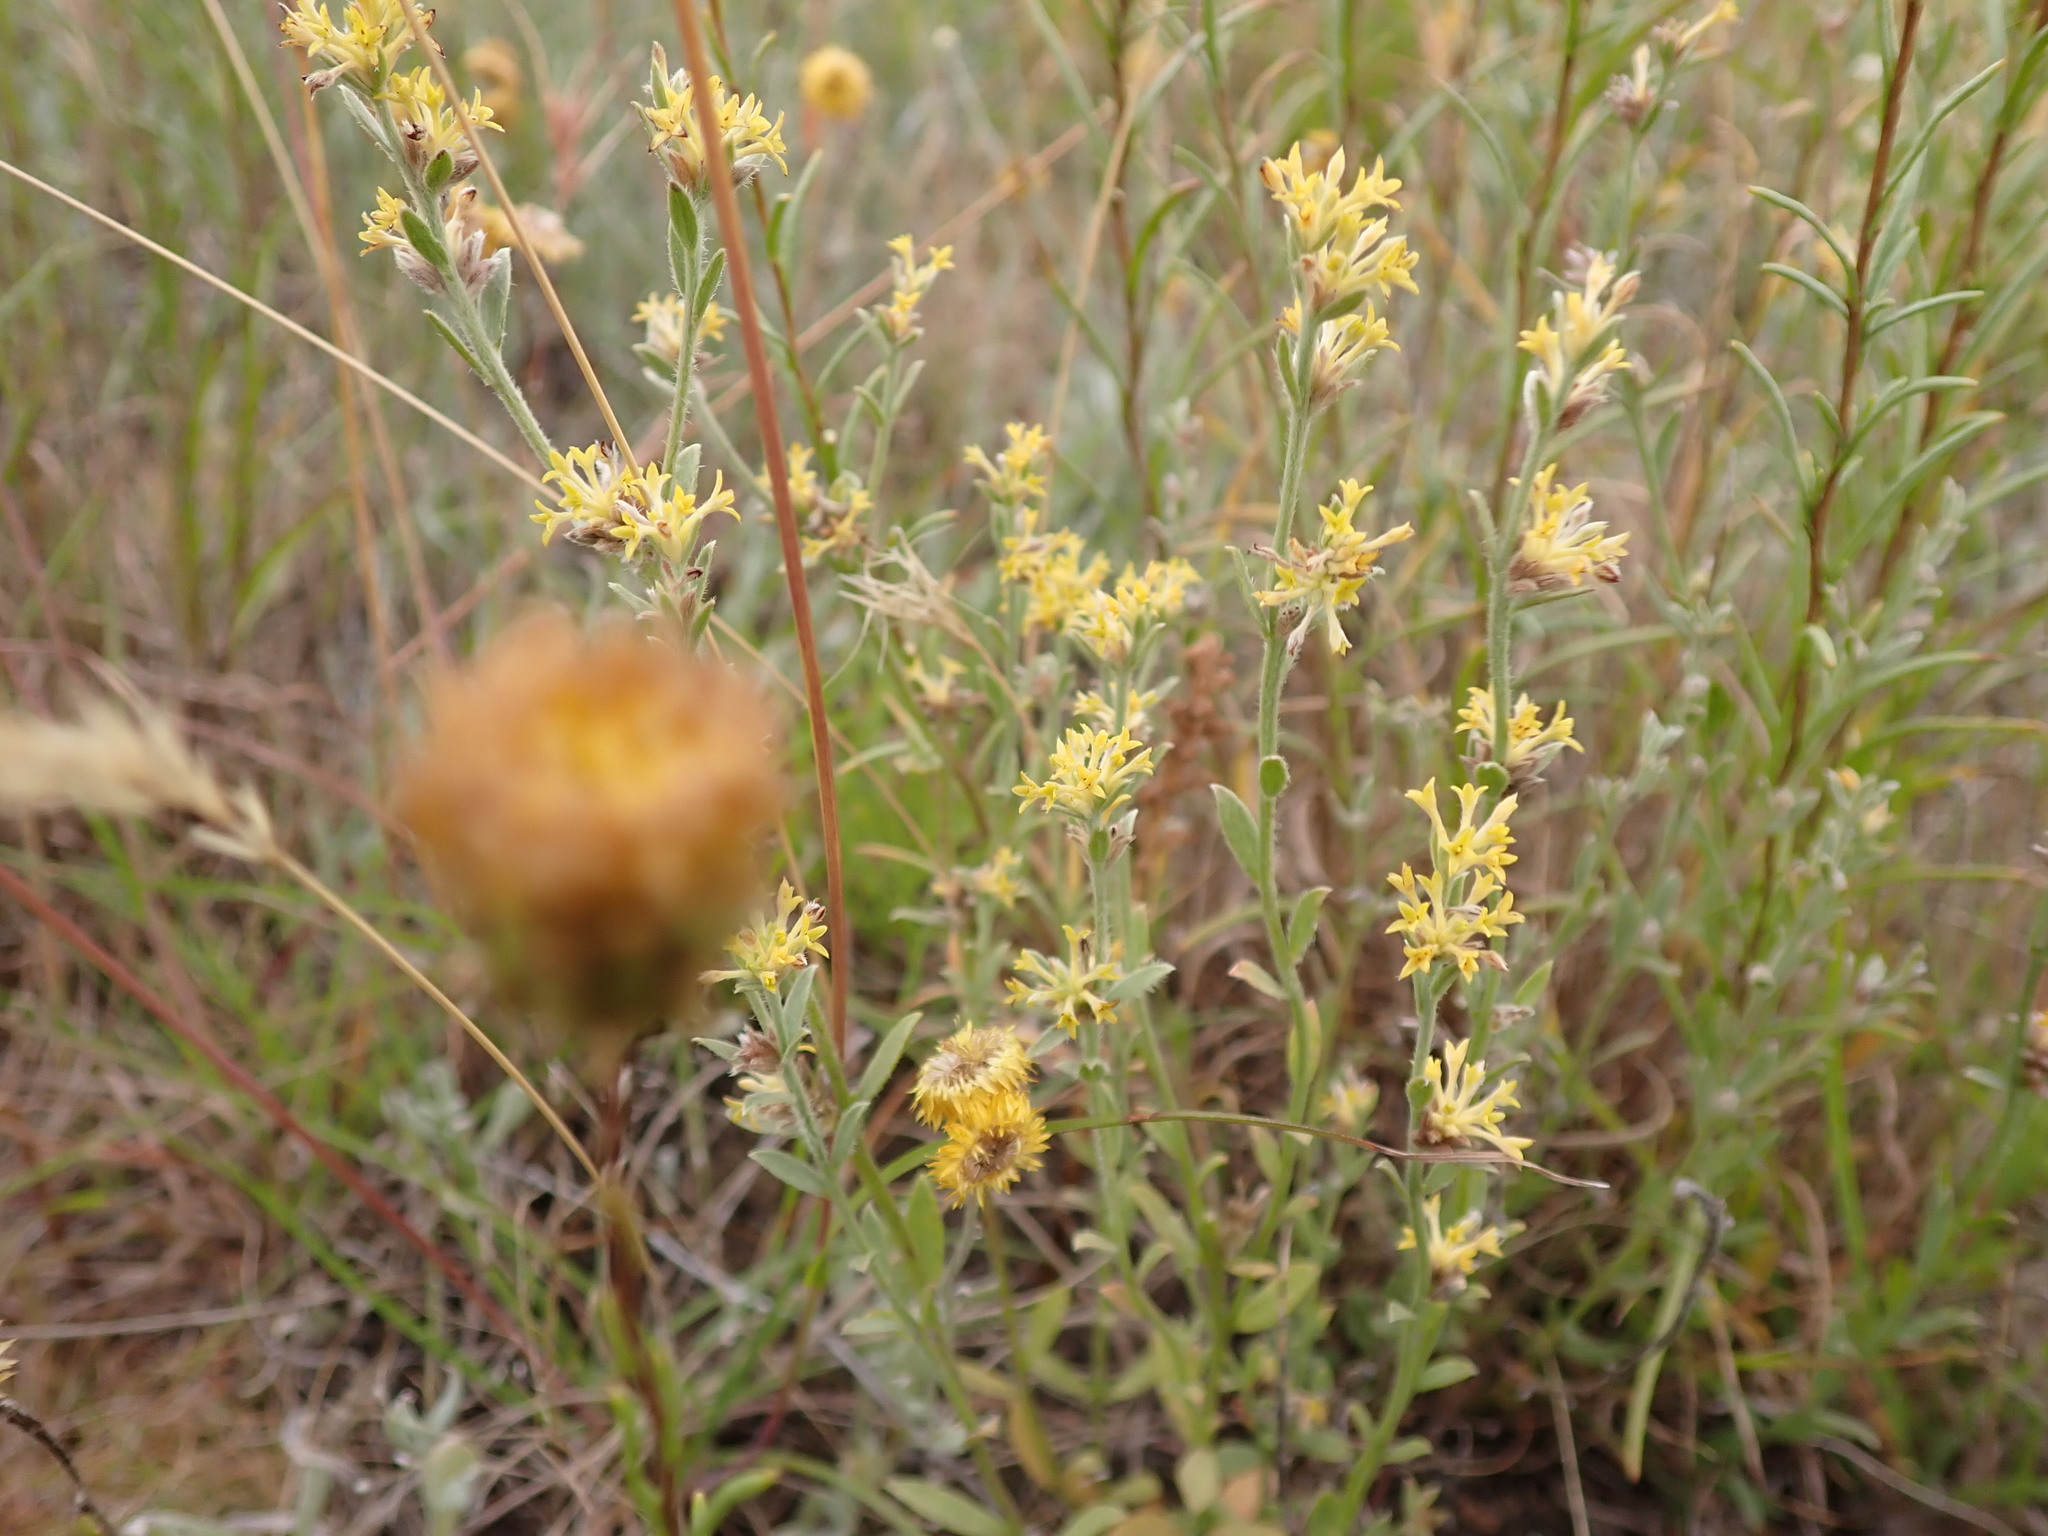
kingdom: Plantae
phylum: Tracheophyta
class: Magnoliopsida
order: Malvales
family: Thymelaeaceae
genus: Pimelea
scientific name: Pimelea curviflora
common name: Curved riceflower
